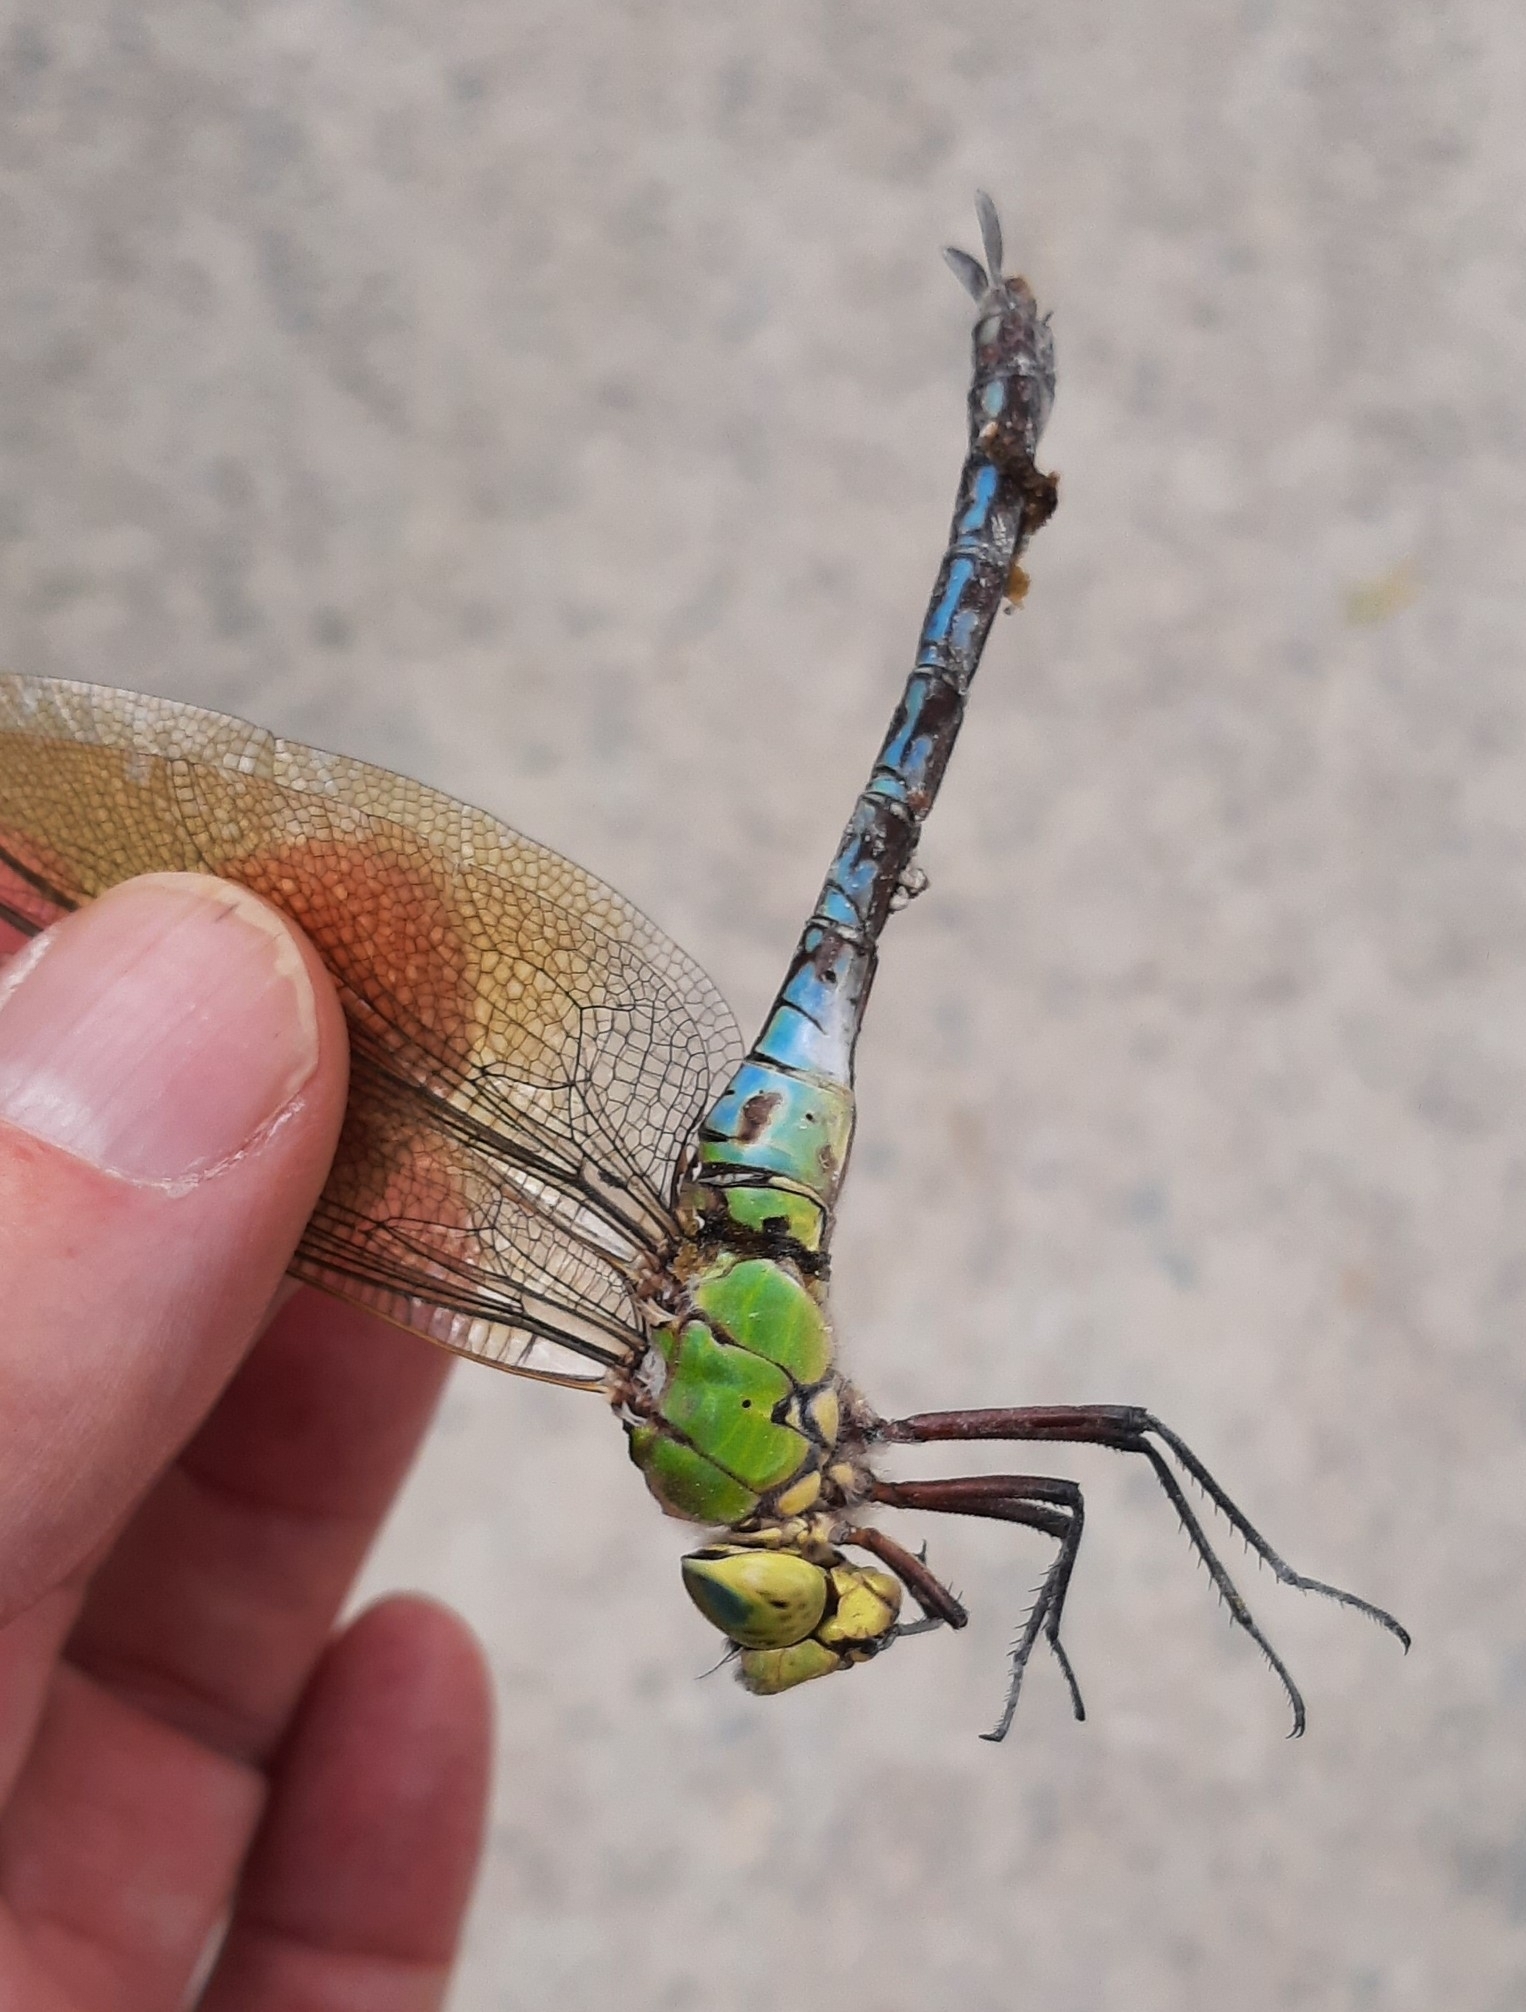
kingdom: Animalia
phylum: Arthropoda
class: Insecta
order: Odonata
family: Aeshnidae
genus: Anax
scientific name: Anax imperator
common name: Emperor dragonfly
